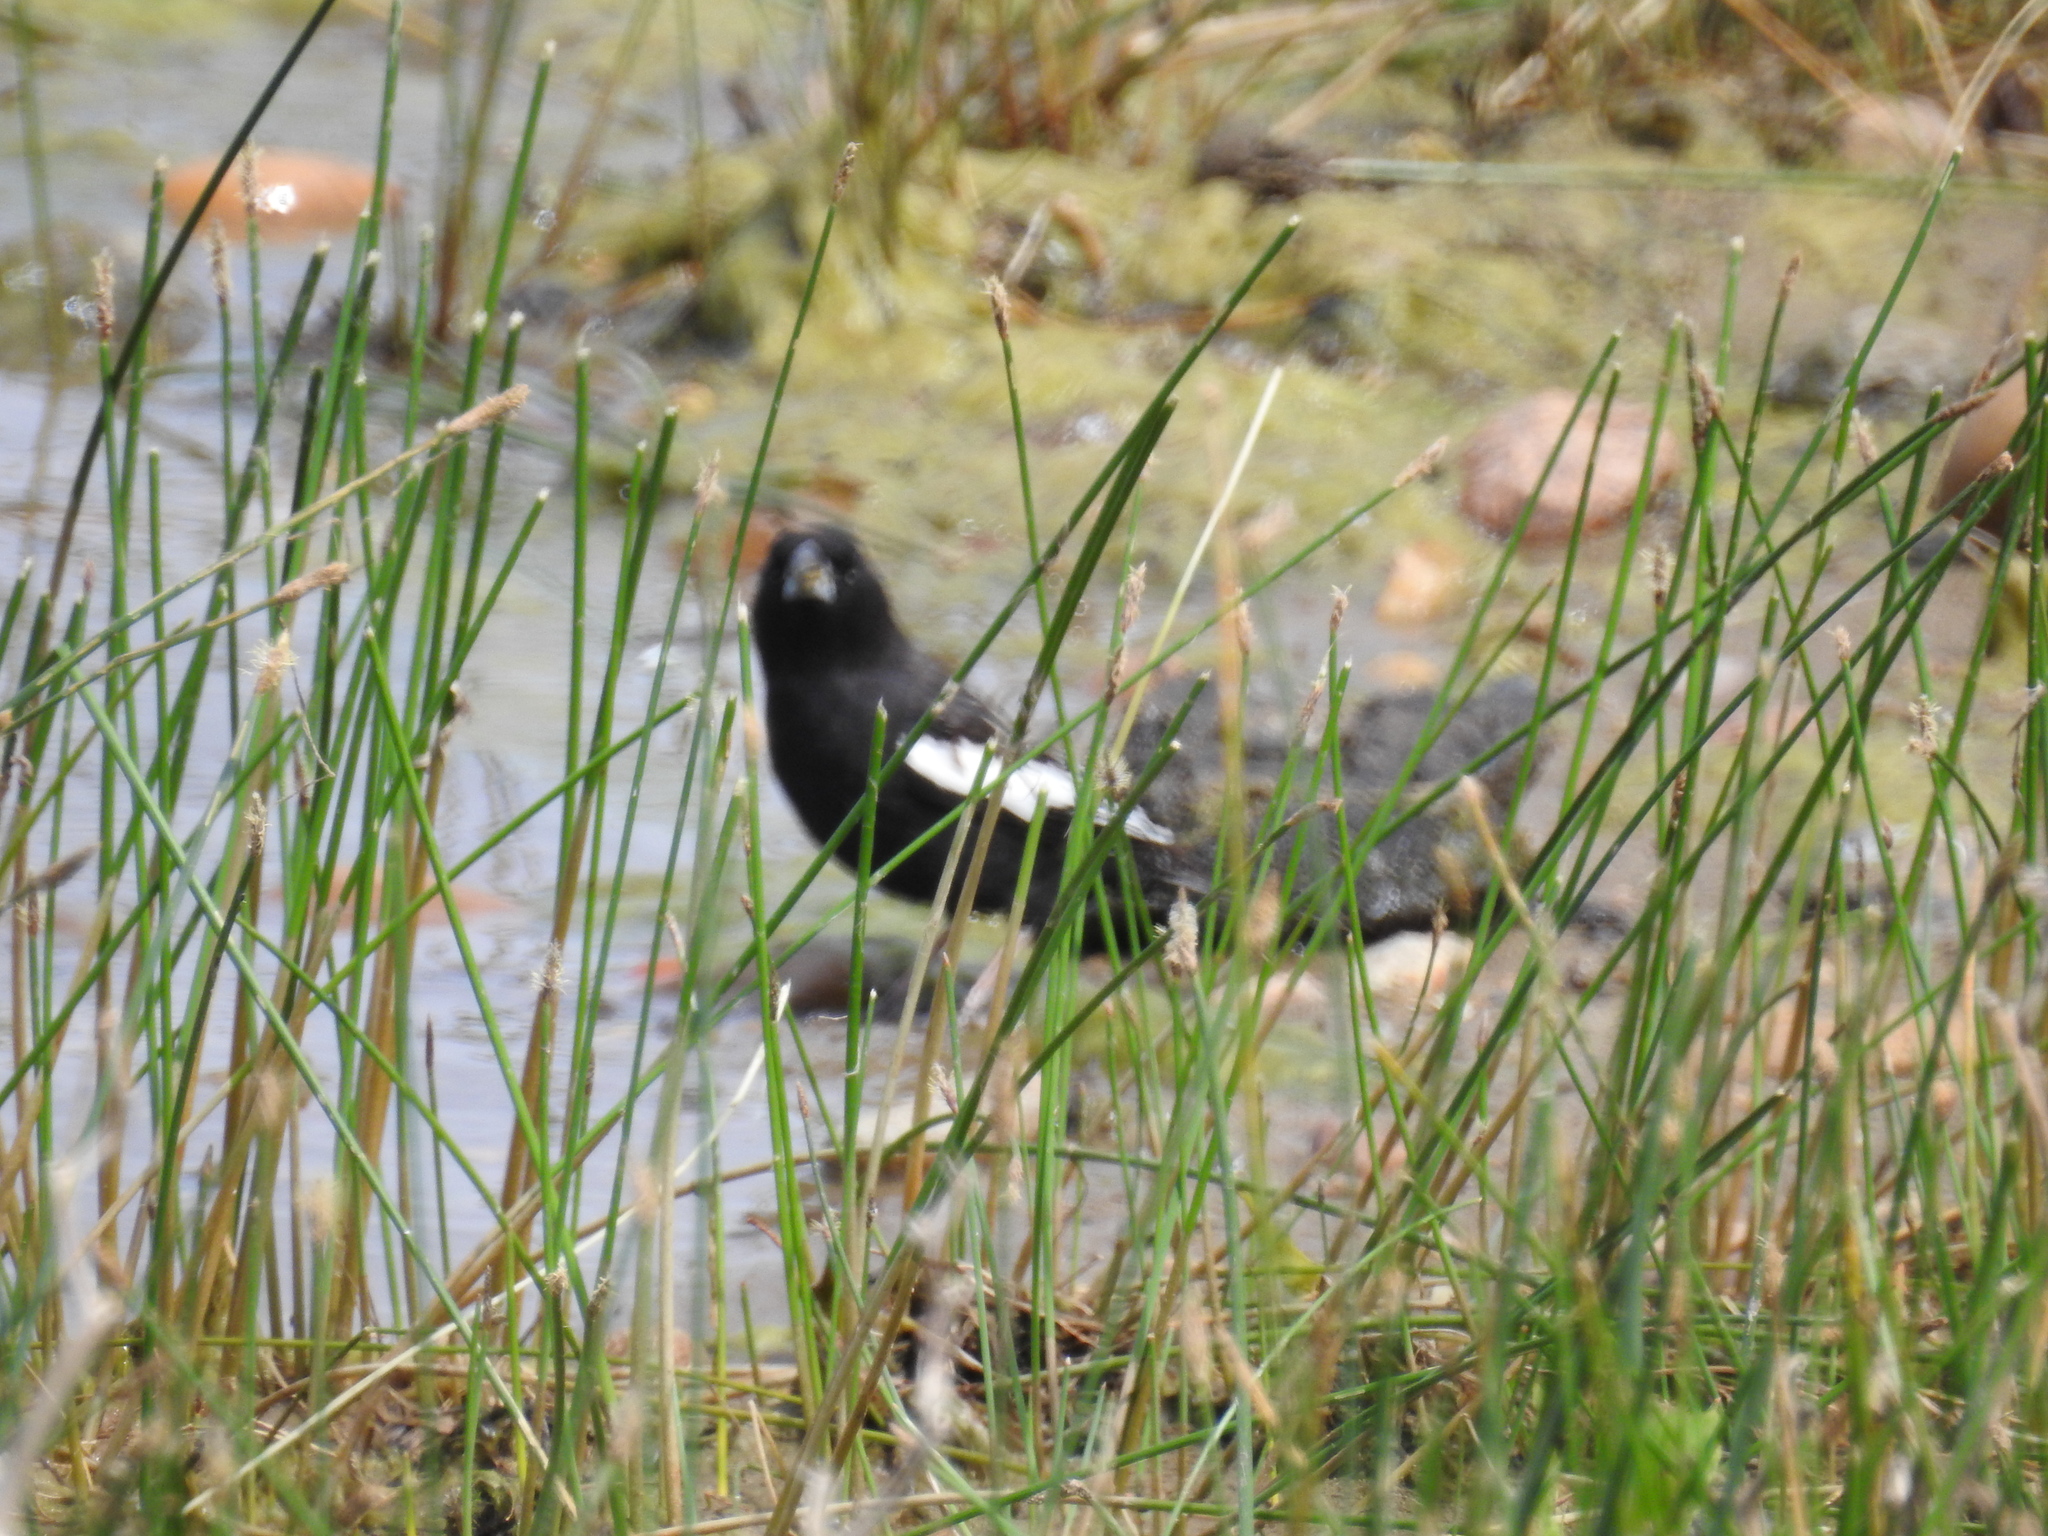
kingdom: Animalia
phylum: Chordata
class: Aves
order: Passeriformes
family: Passerellidae
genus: Calamospiza
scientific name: Calamospiza melanocorys
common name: Lark bunting
